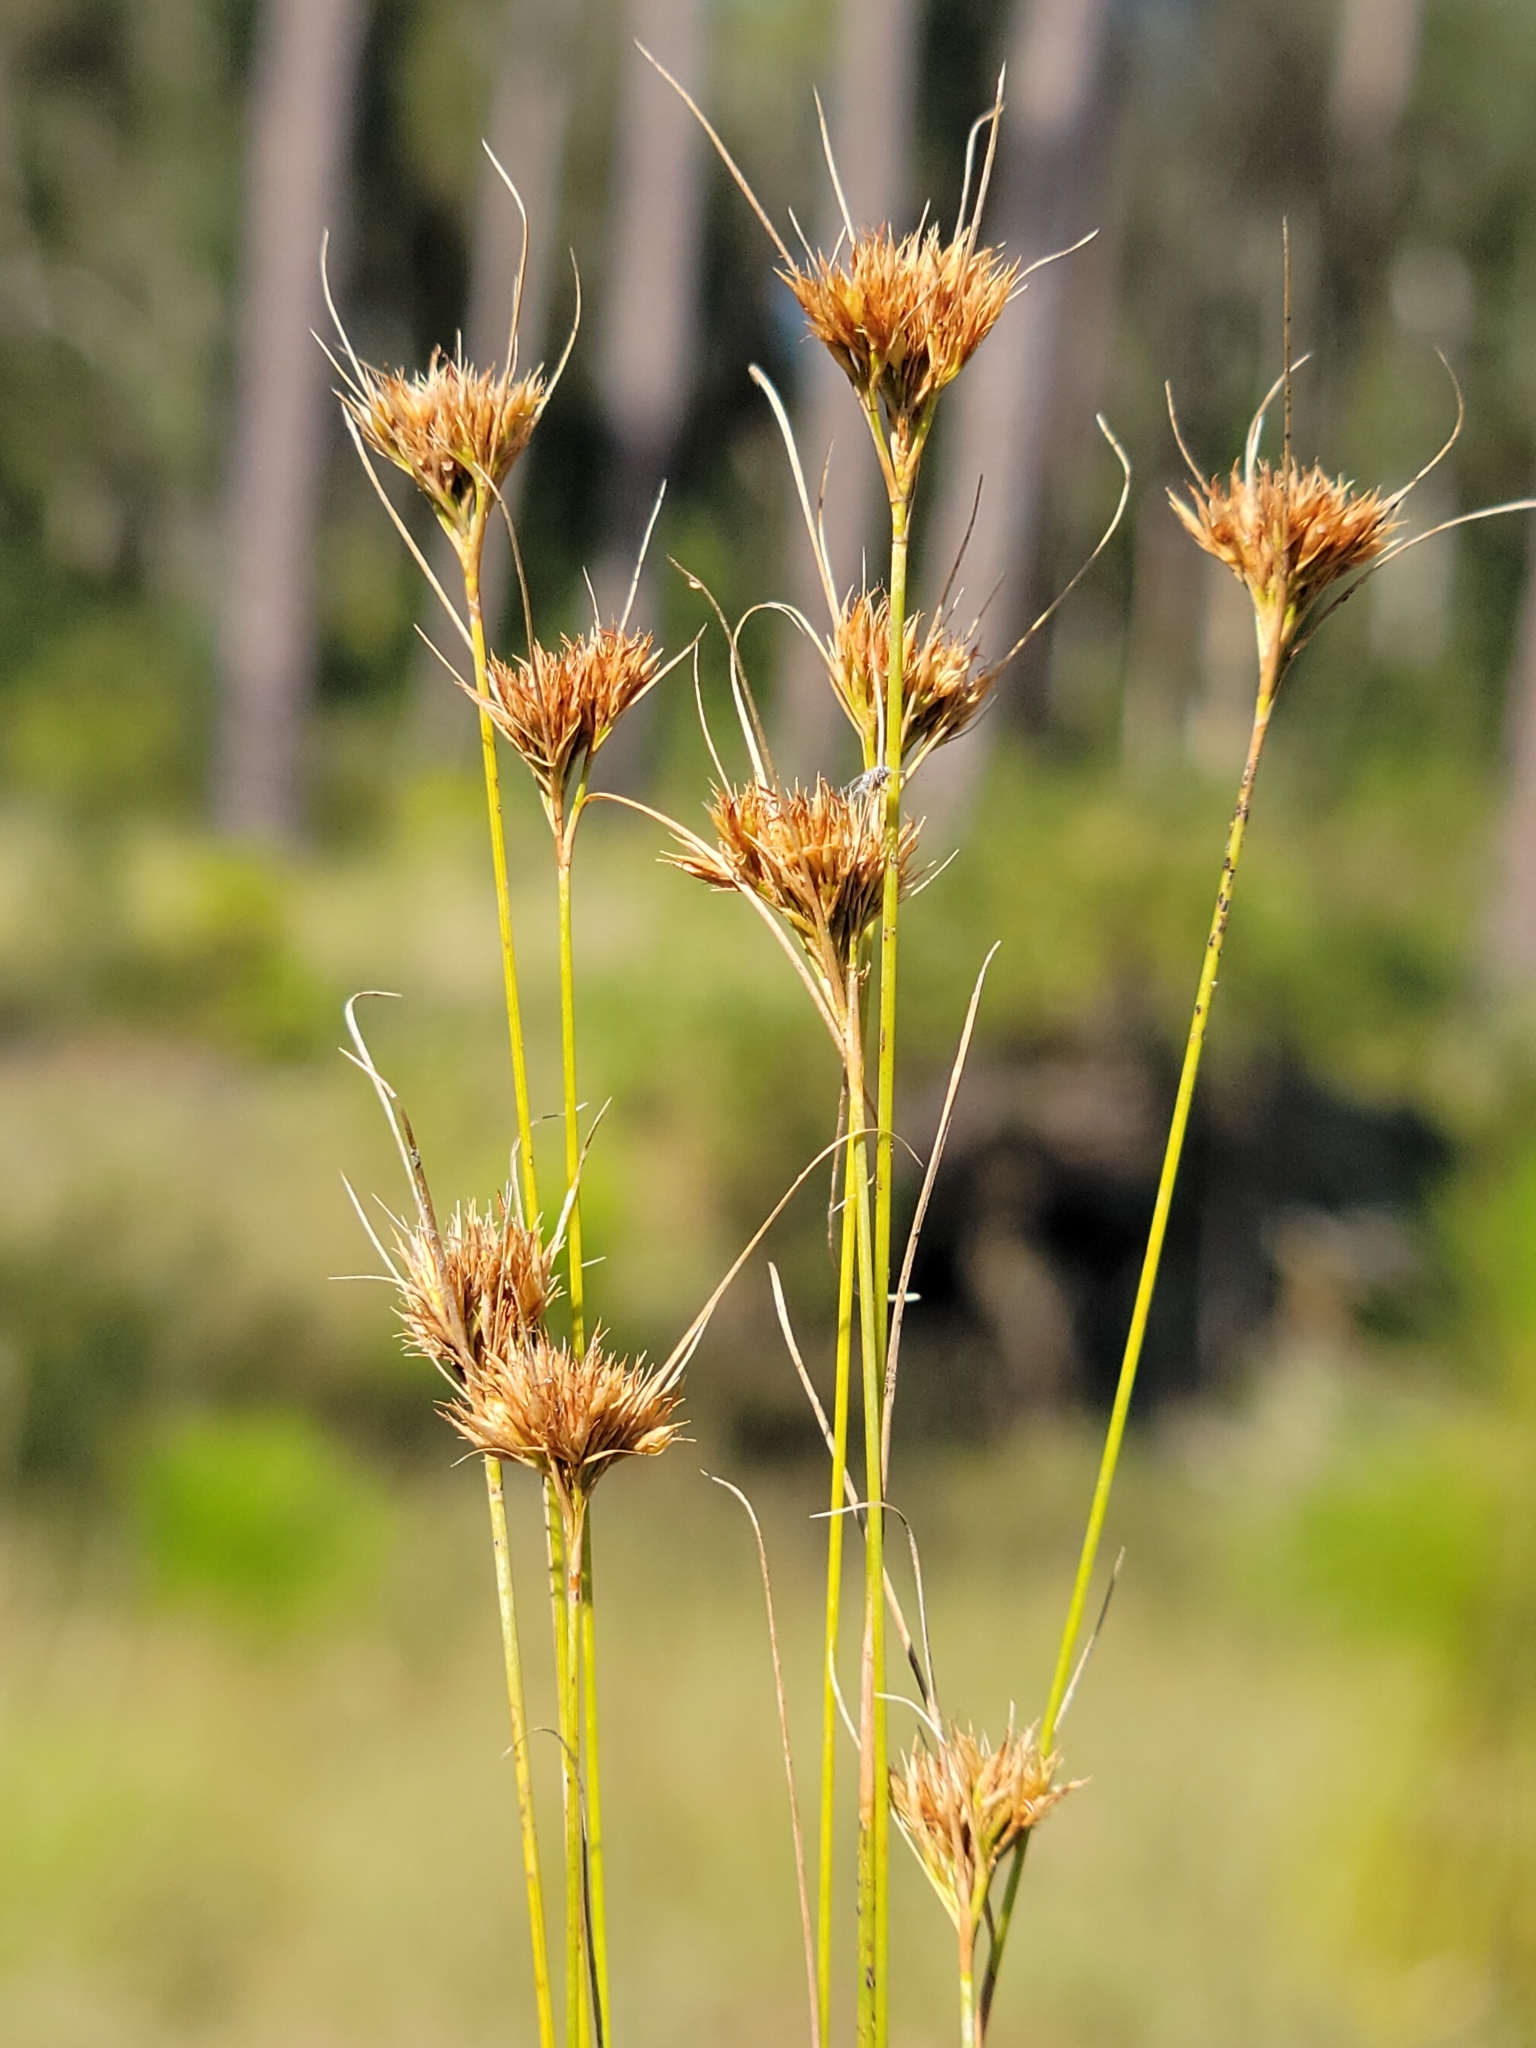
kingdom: Plantae
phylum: Tracheophyta
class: Liliopsida
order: Poales
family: Cyperaceae
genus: Rhynchospora
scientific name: Rhynchospora chapmanii
